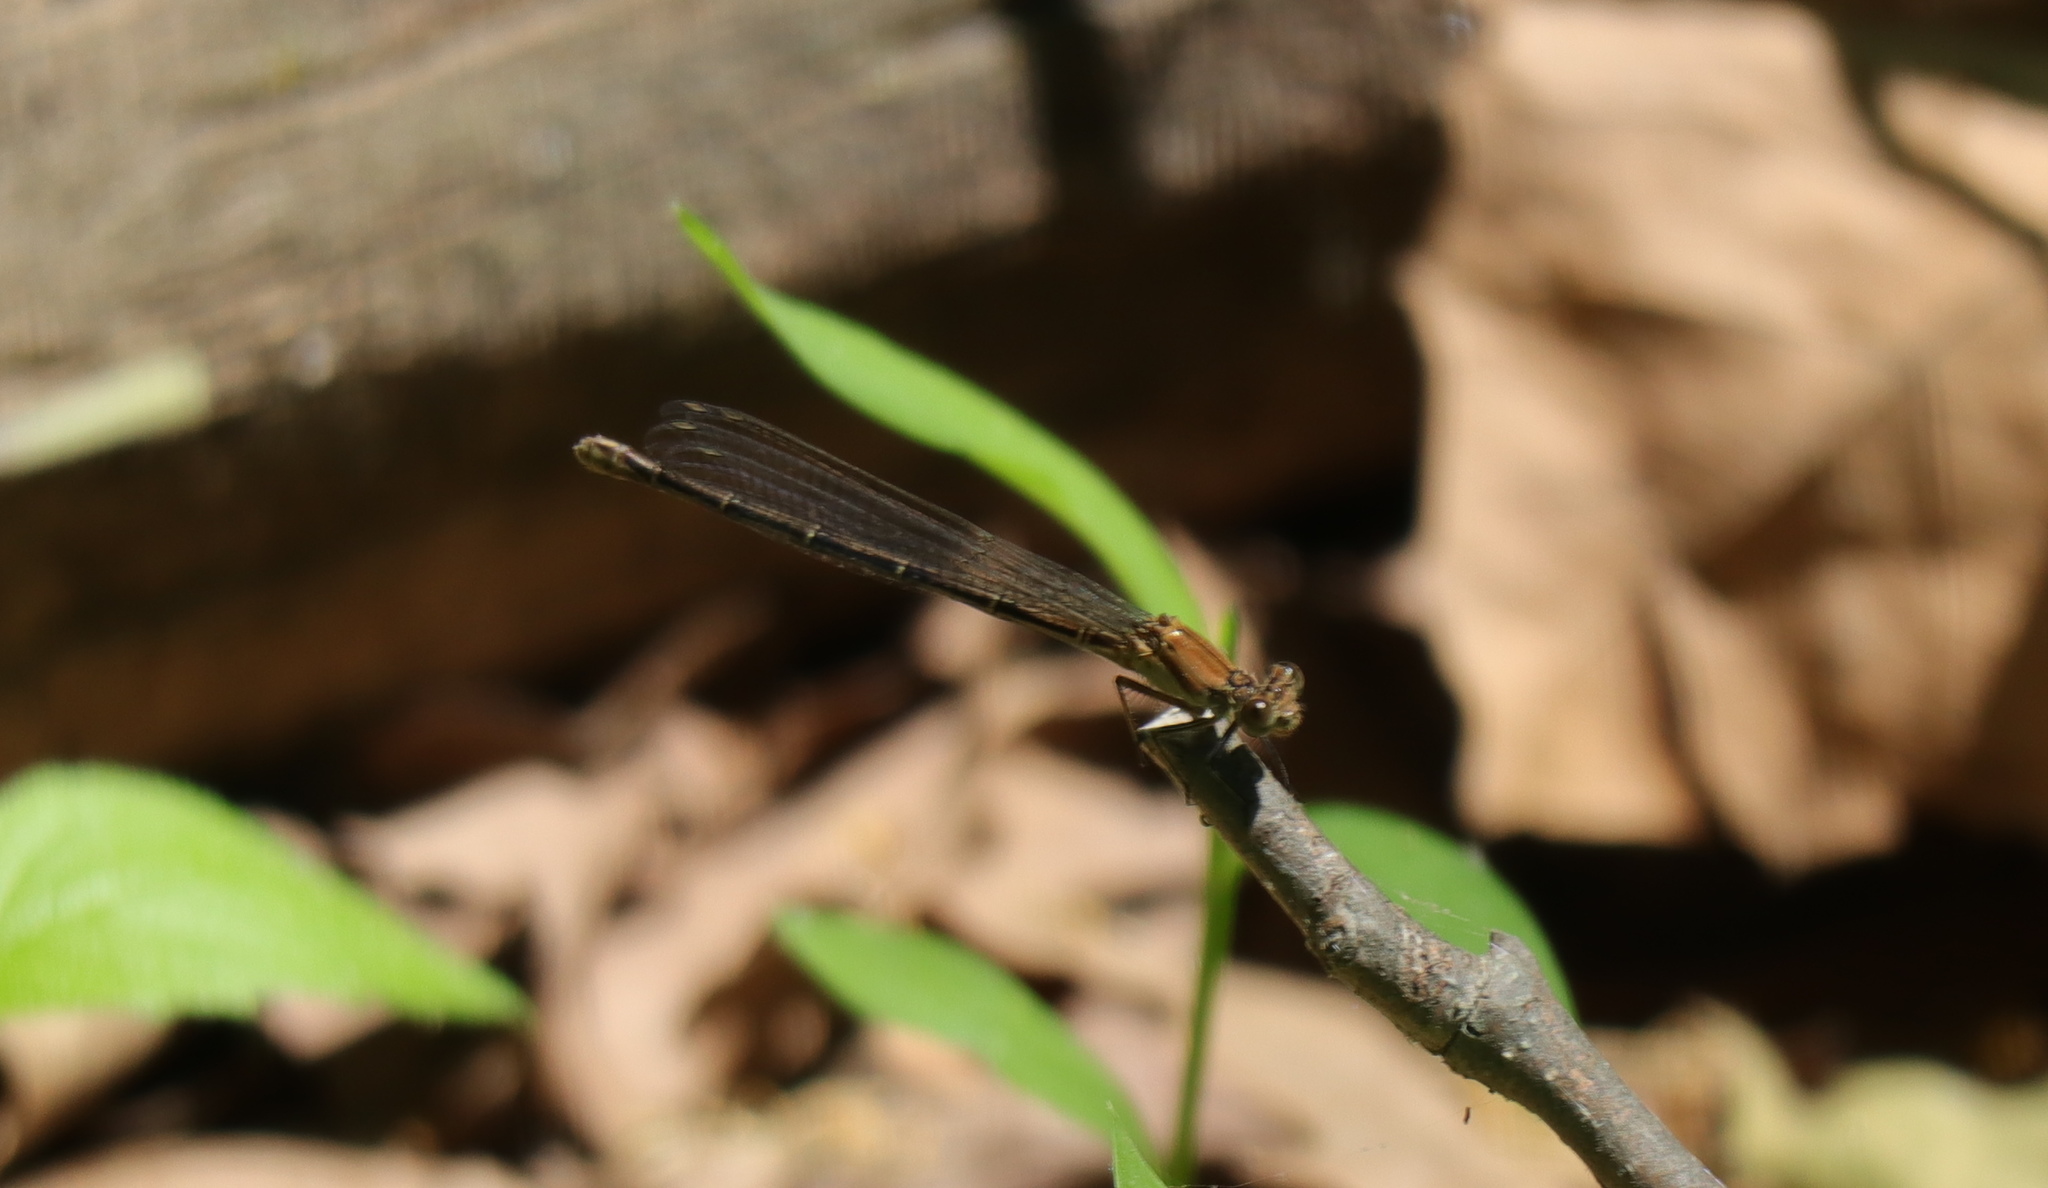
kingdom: Animalia
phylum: Arthropoda
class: Insecta
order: Odonata
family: Coenagrionidae
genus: Argia
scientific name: Argia moesta
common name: Powdered dancer
